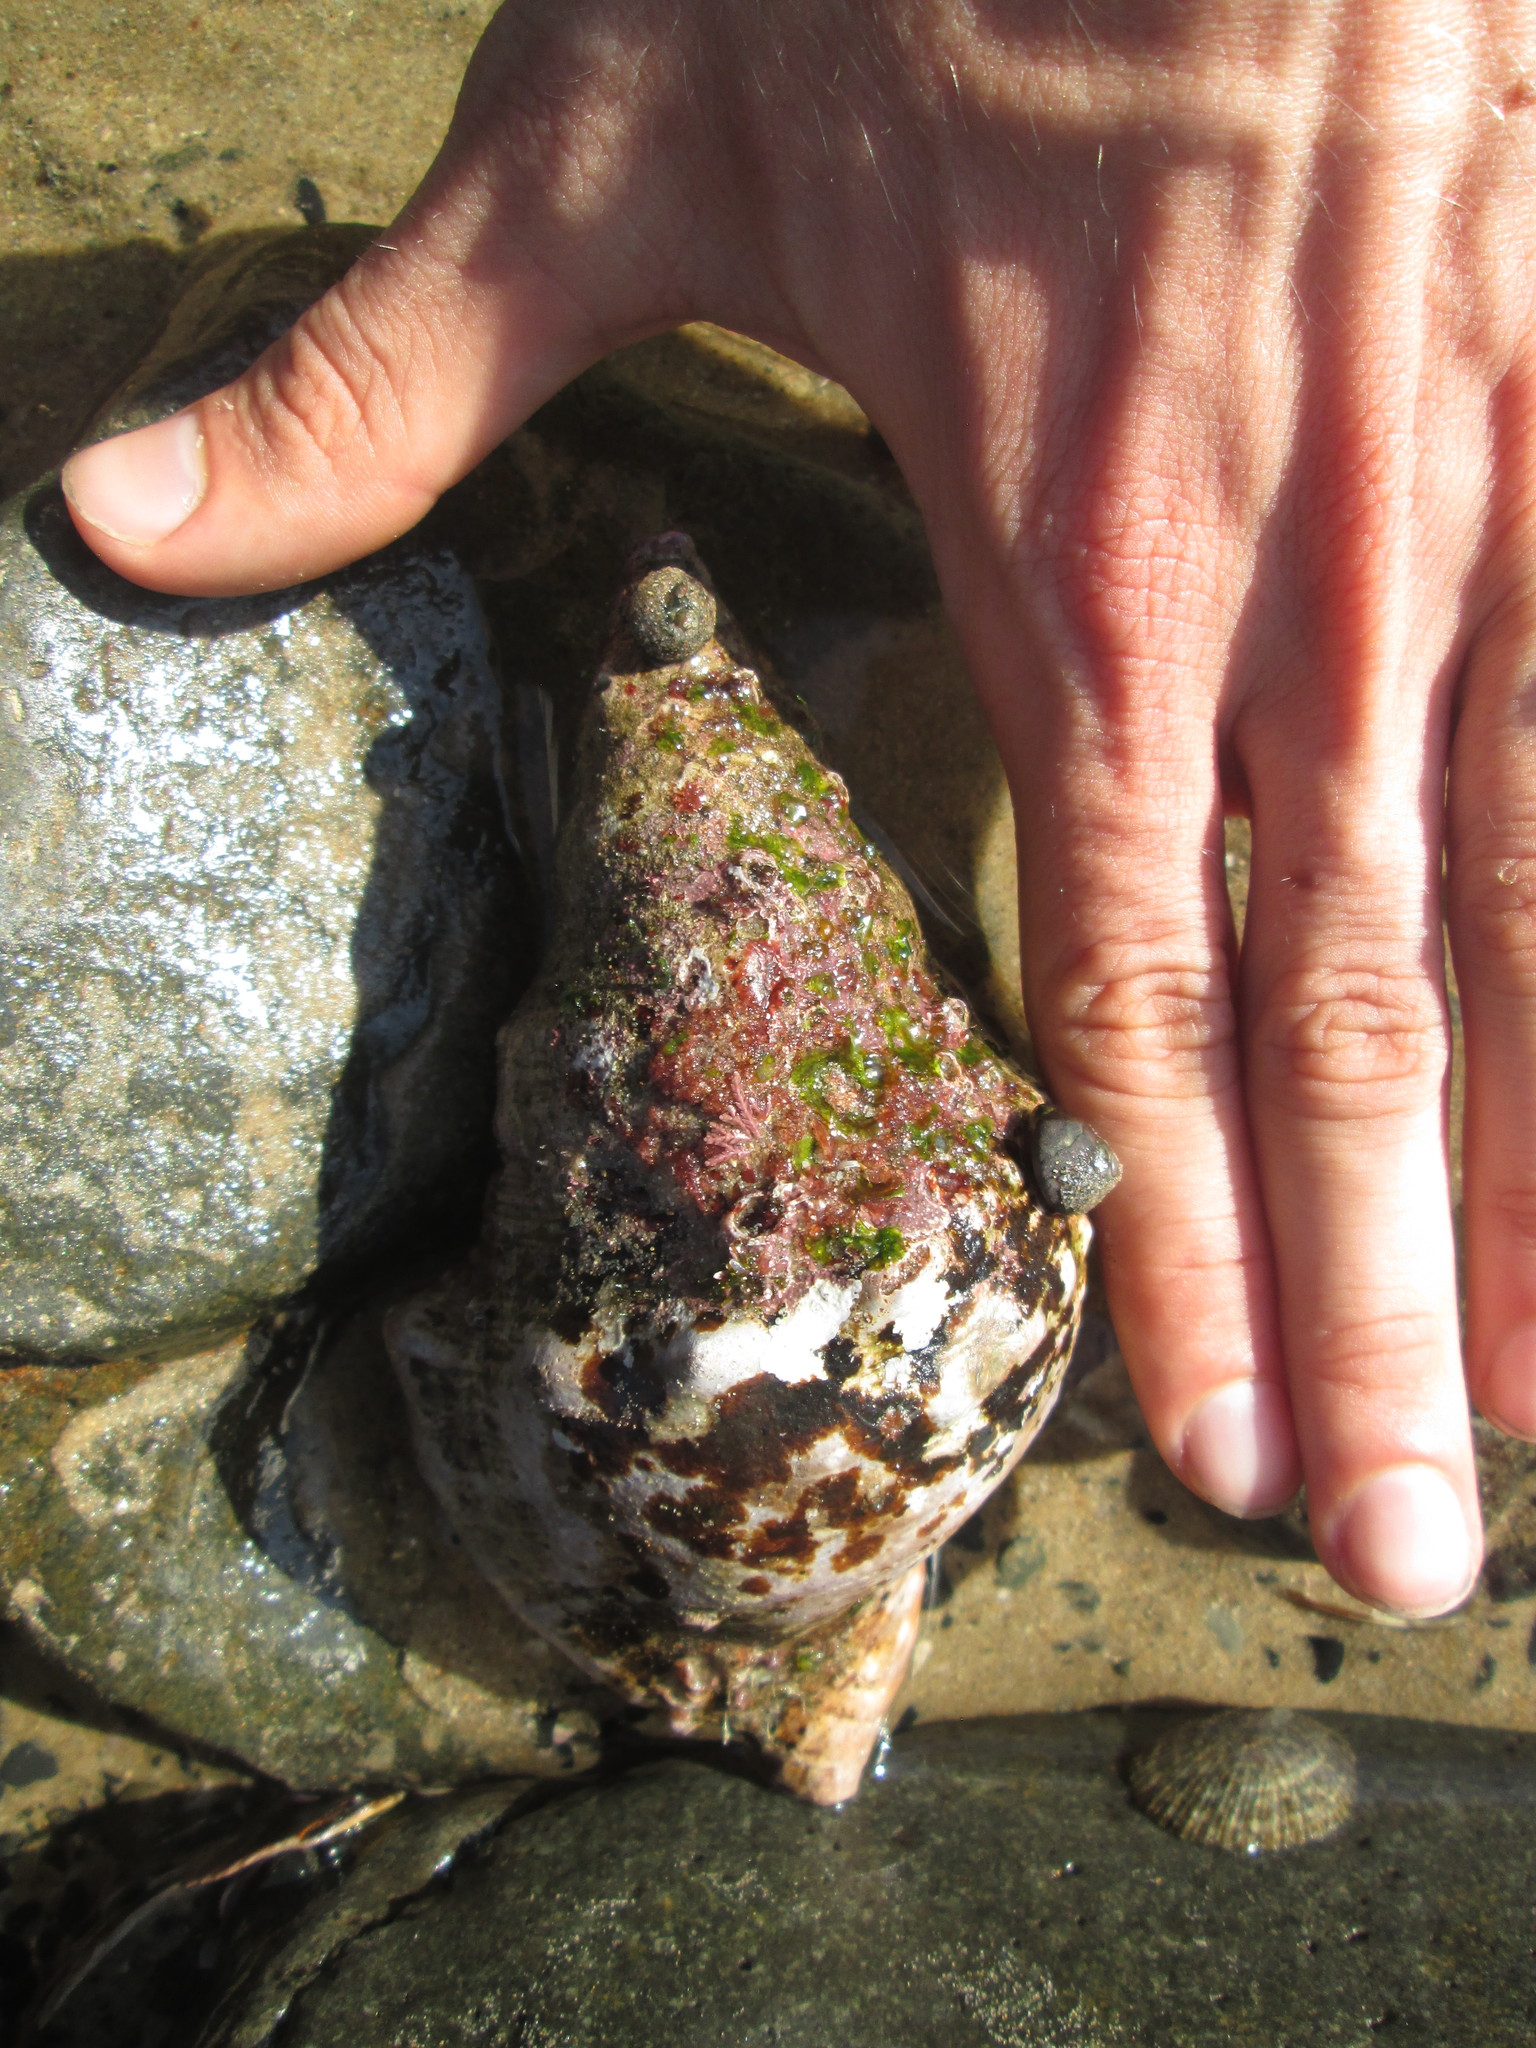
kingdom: Animalia
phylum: Mollusca
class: Gastropoda
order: Littorinimorpha
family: Charoniidae
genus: Charonia
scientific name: Charonia lampas
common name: Knobbed triton
